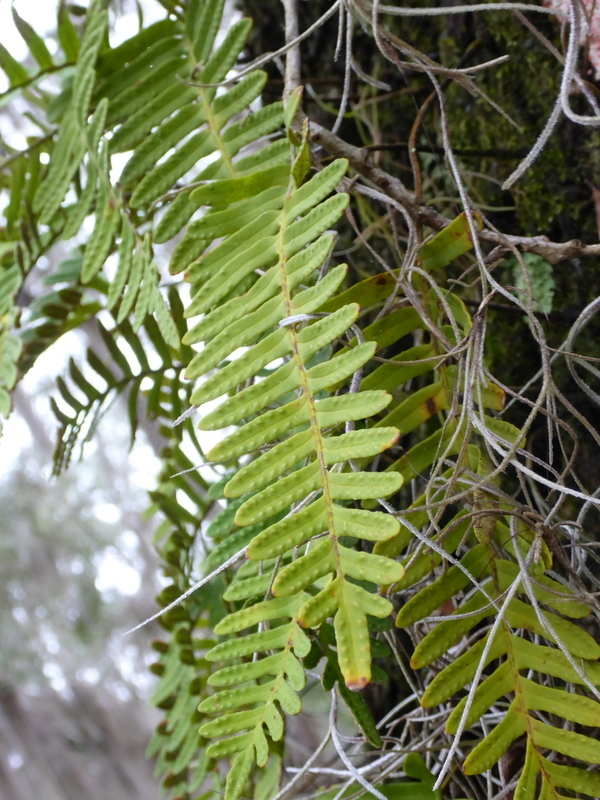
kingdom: Plantae
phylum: Tracheophyta
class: Polypodiopsida
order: Polypodiales
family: Polypodiaceae
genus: Pleopeltis
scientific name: Pleopeltis michauxiana
